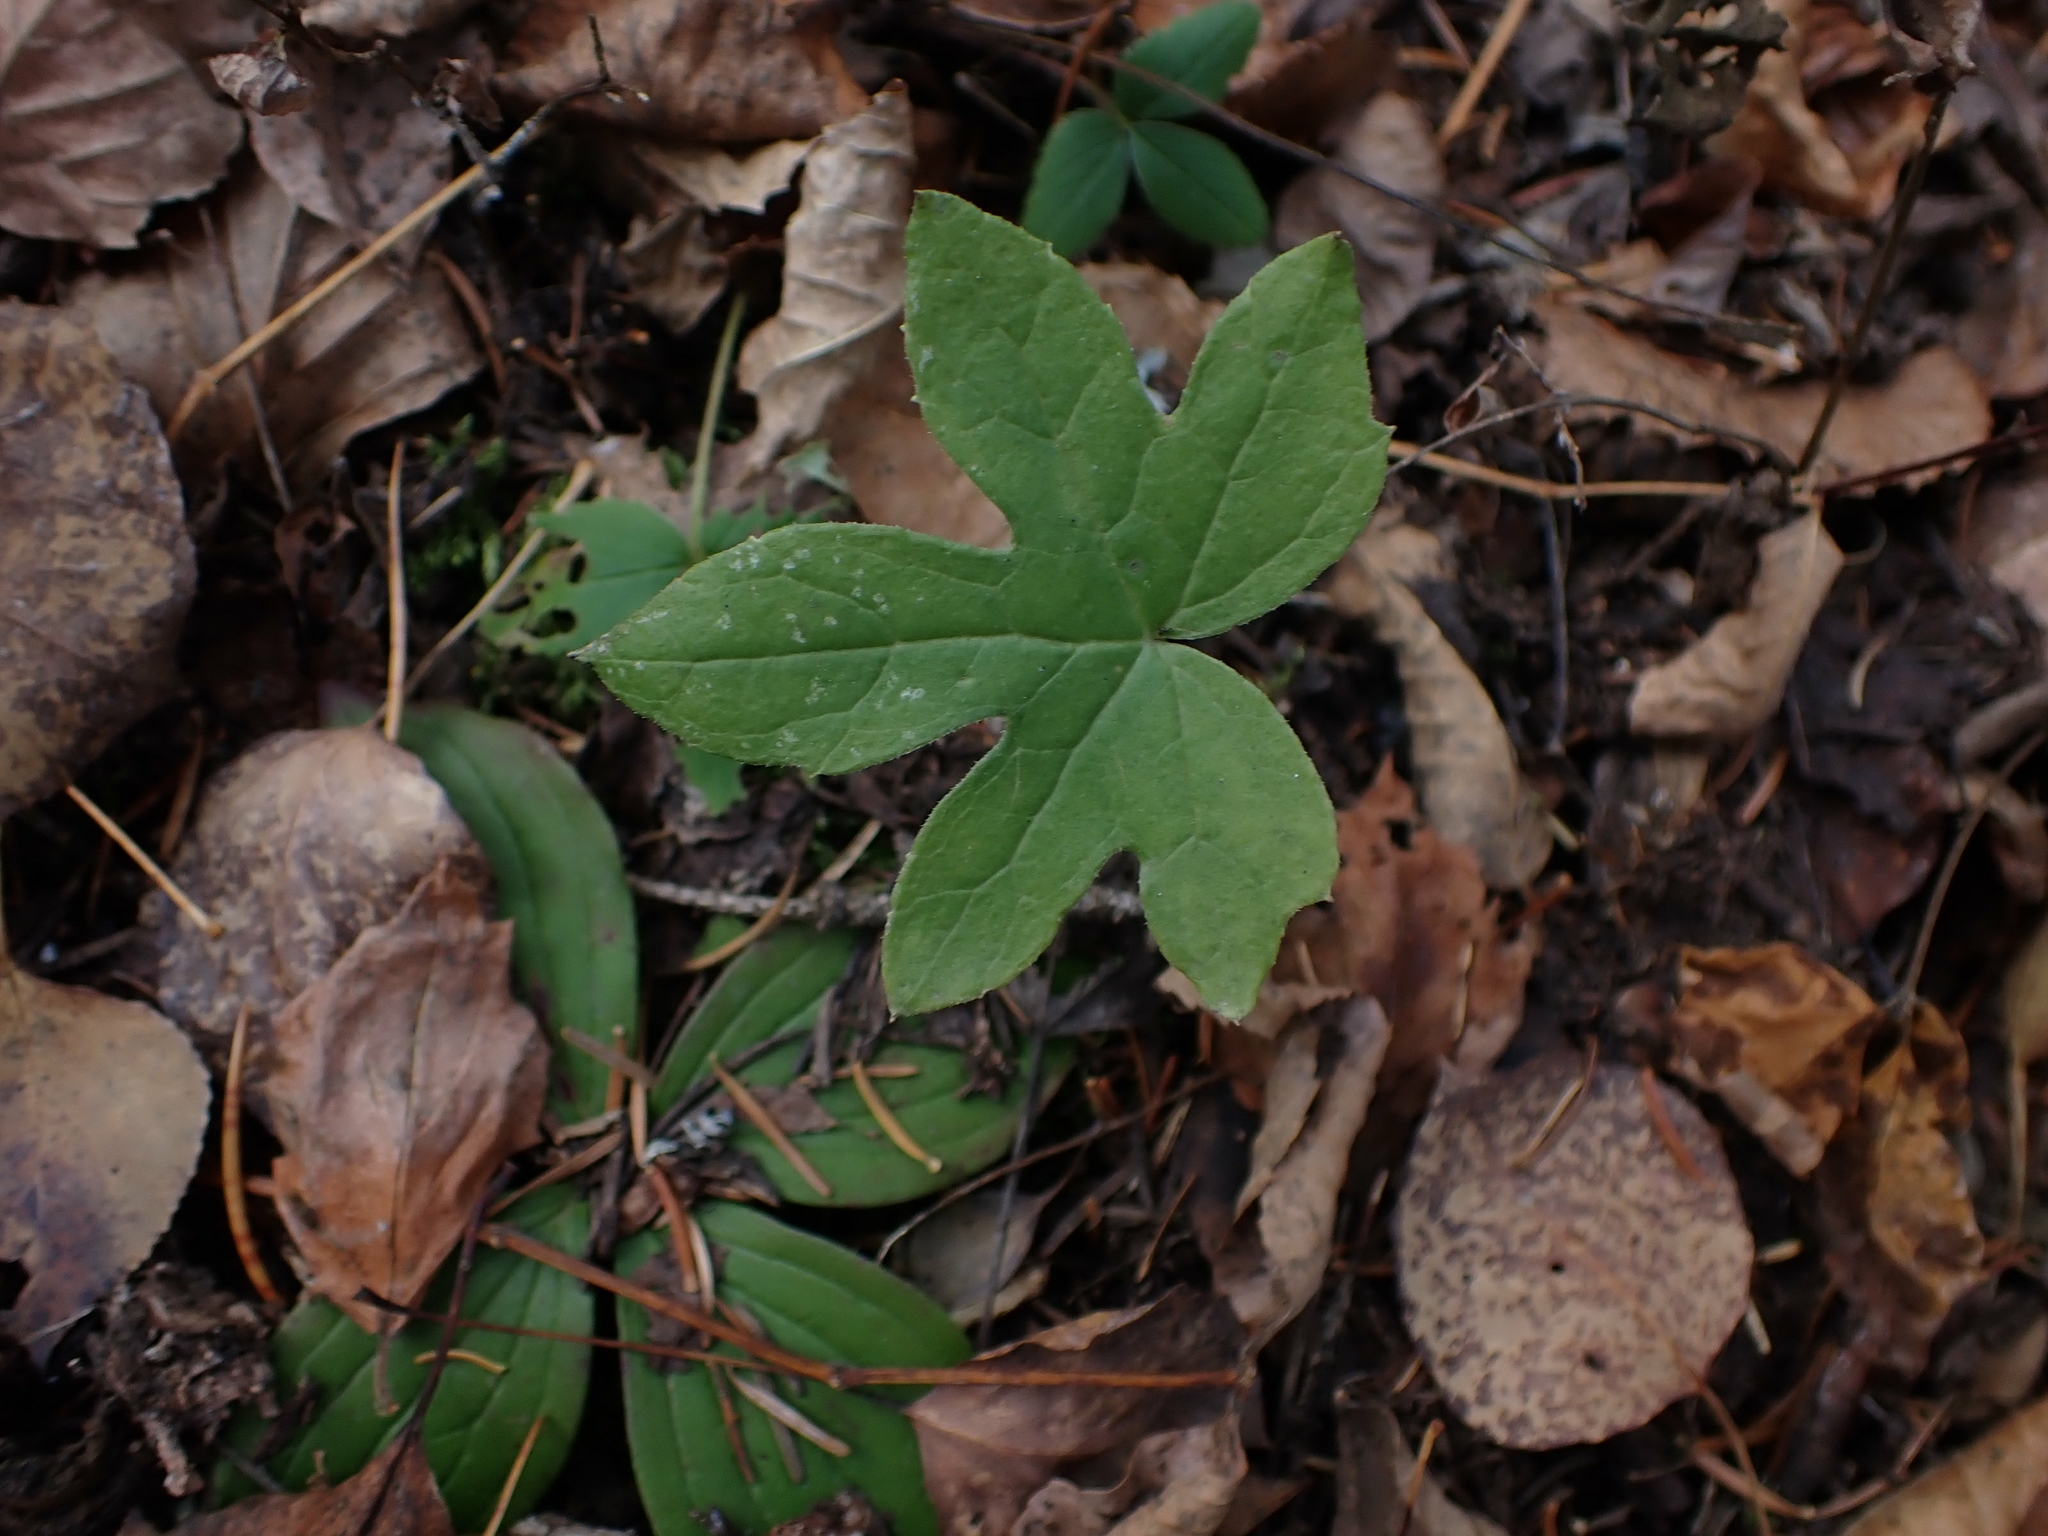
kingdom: Plantae
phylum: Tracheophyta
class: Magnoliopsida
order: Asterales
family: Asteraceae
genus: Nabalus
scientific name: Nabalus albus
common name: White rattlesnakeroot
